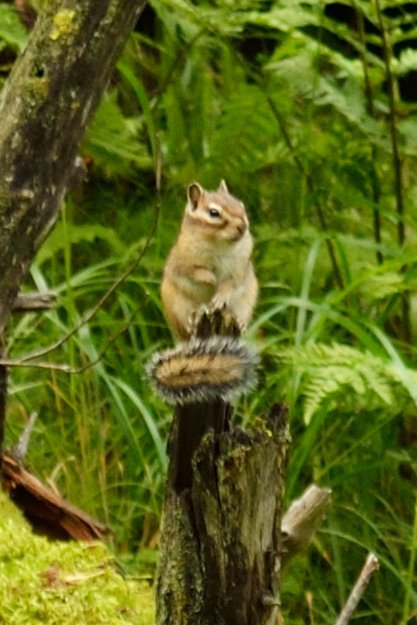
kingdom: Animalia
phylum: Chordata
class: Mammalia
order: Rodentia
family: Sciuridae
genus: Tamias
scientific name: Tamias sibiricus
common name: Siberian chipmunk
